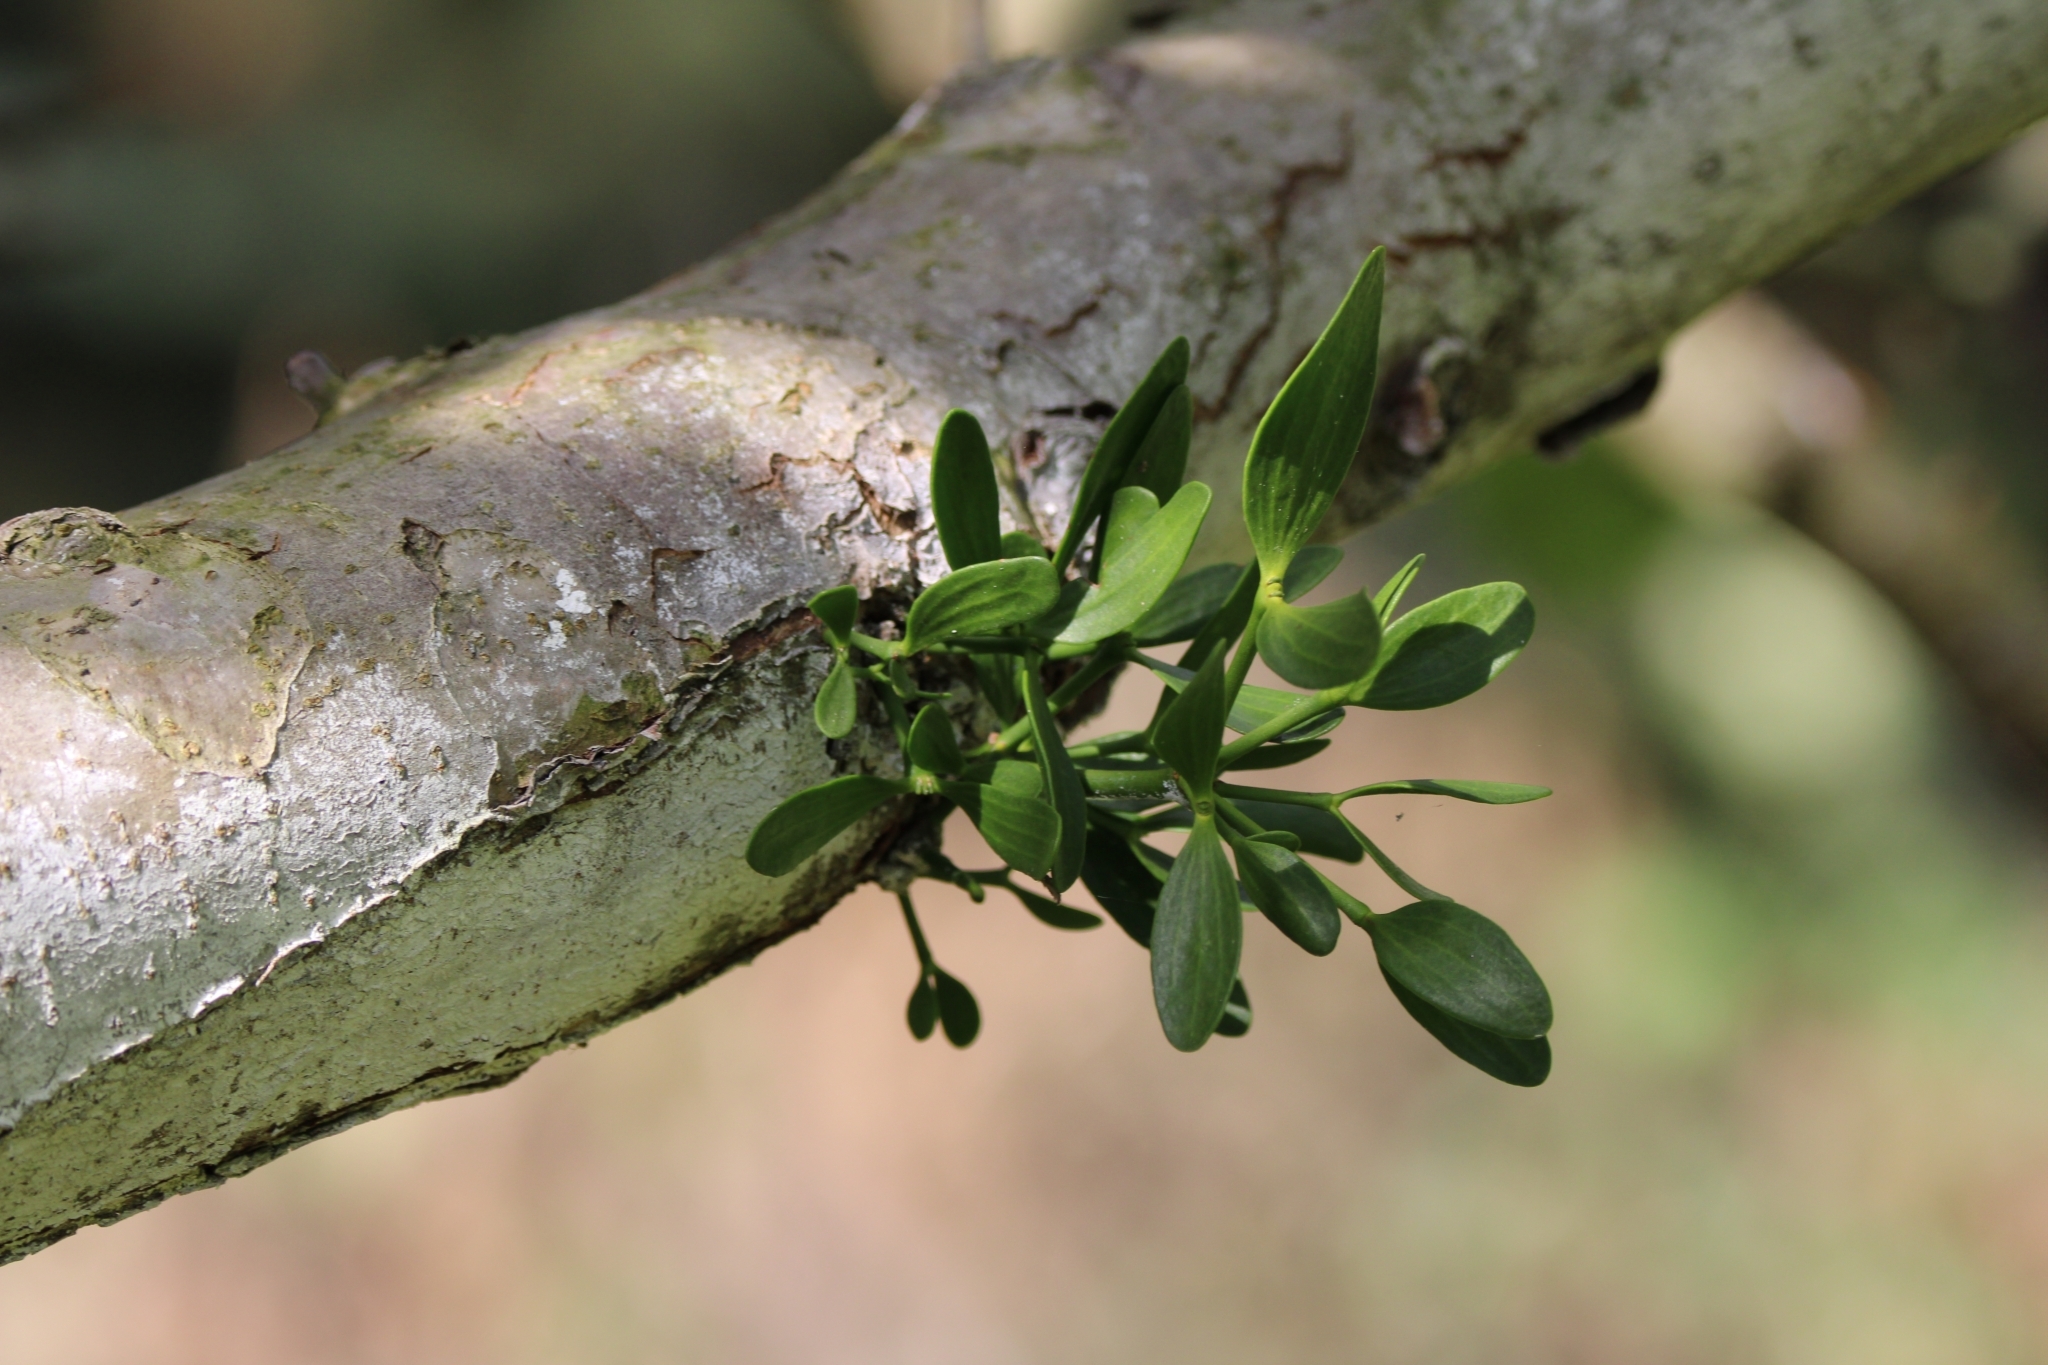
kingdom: Plantae
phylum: Tracheophyta
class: Magnoliopsida
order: Santalales
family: Viscaceae
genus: Viscum
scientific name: Viscum album
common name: Mistletoe
